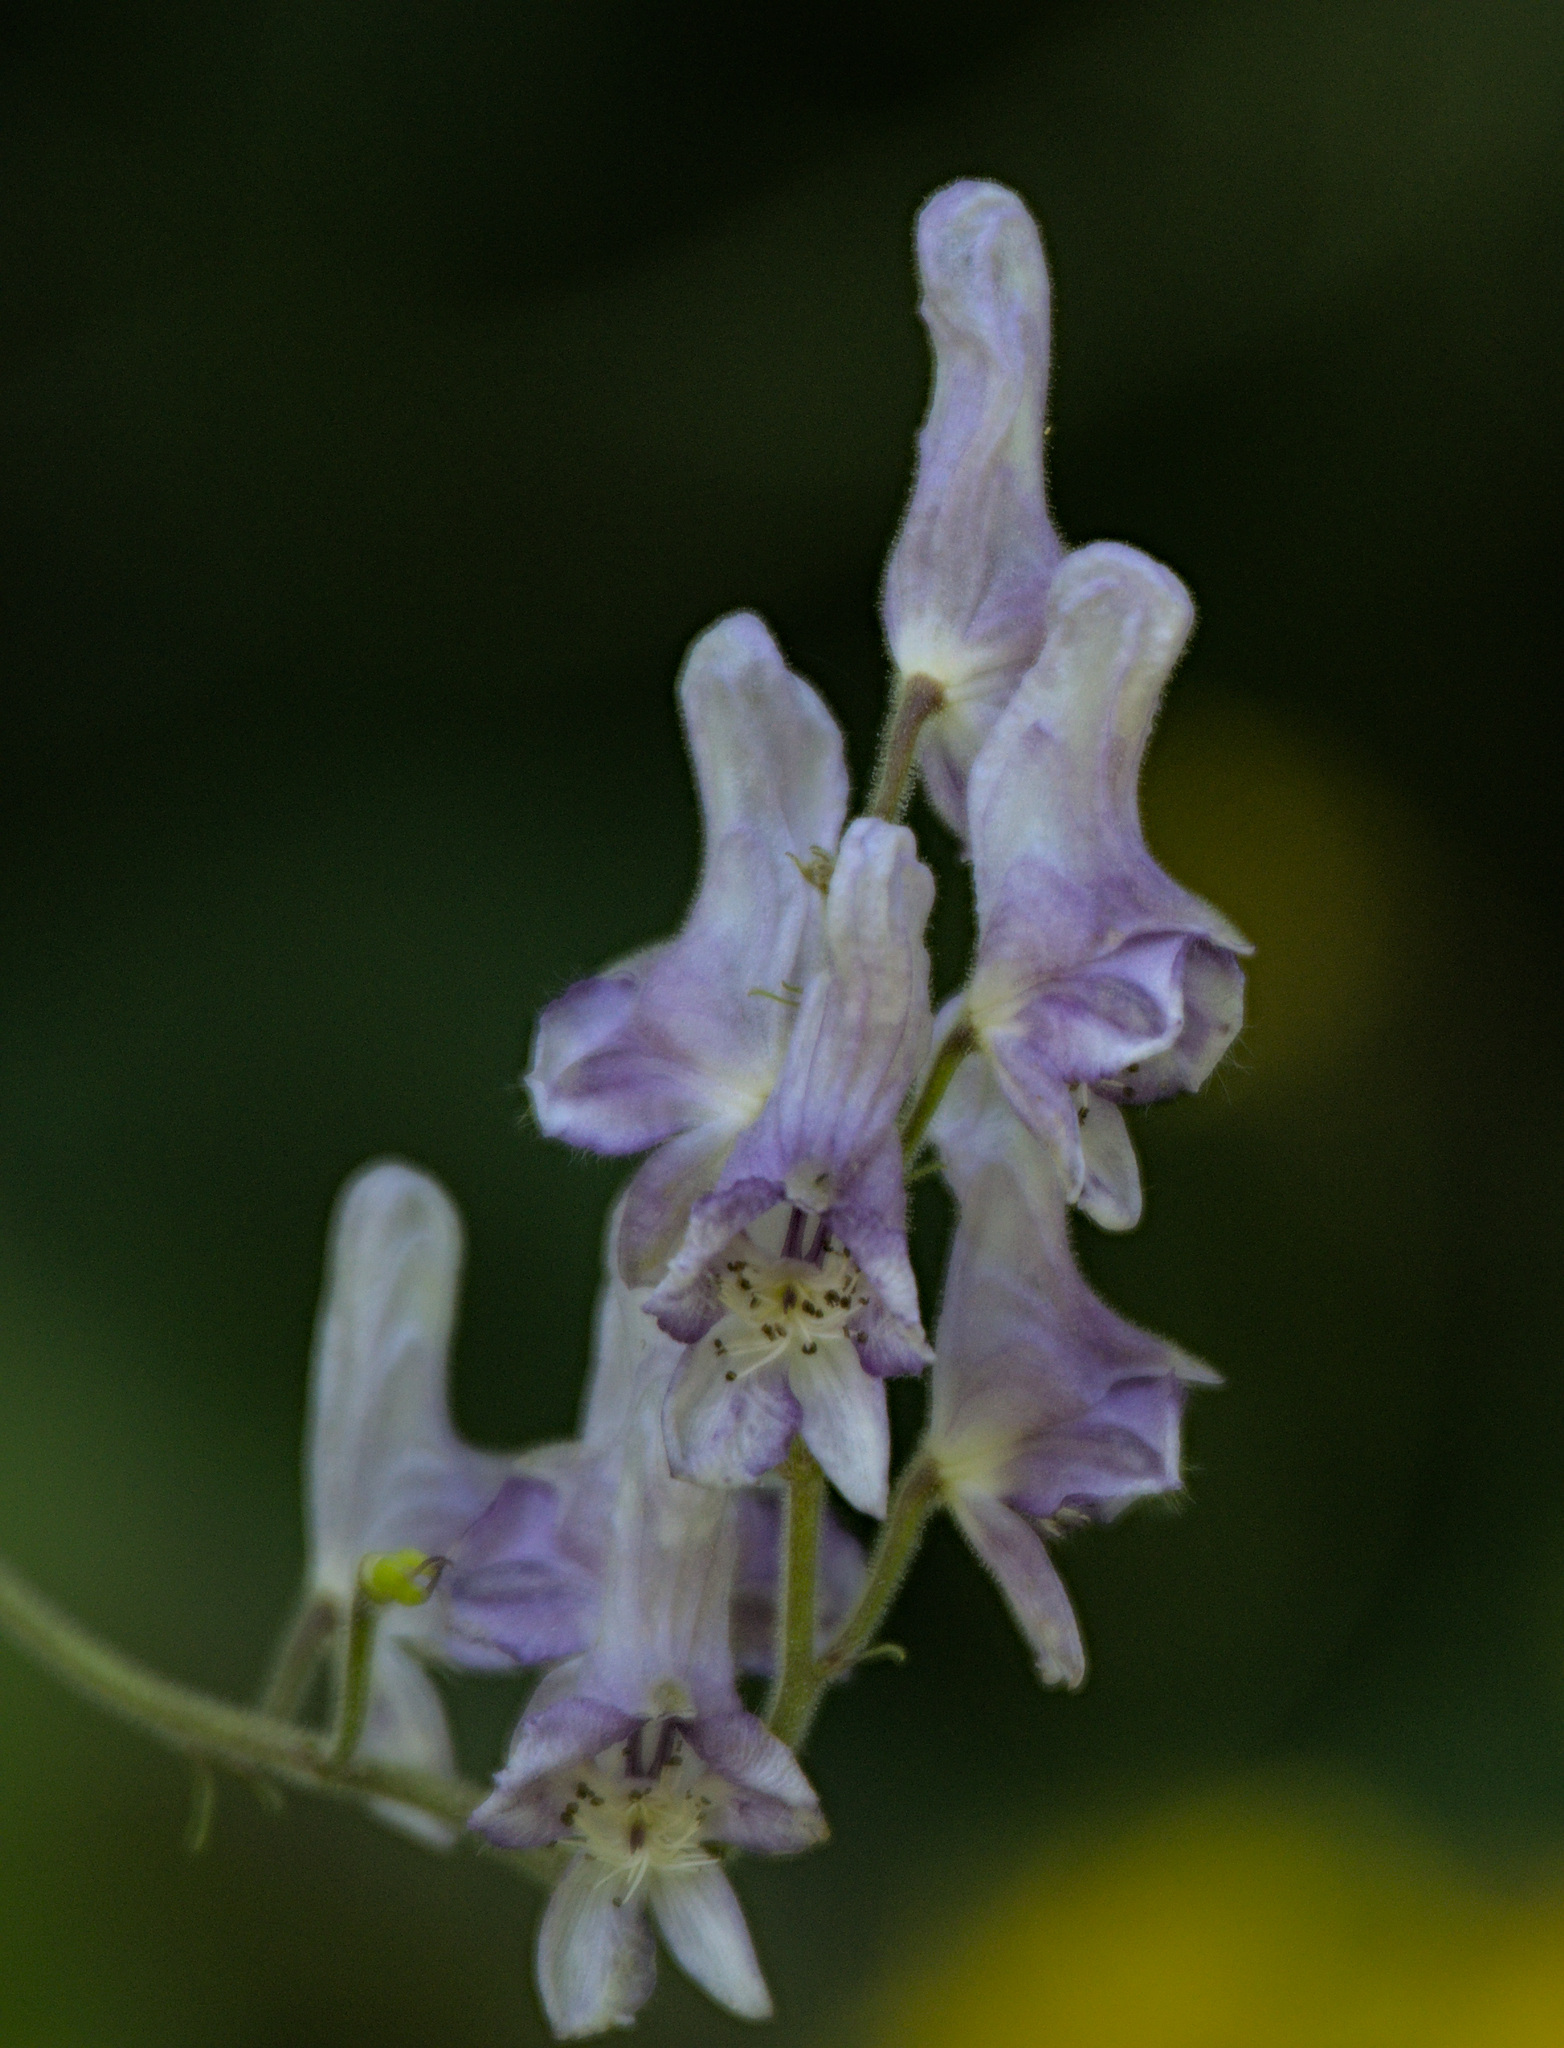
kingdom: Plantae
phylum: Tracheophyta
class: Magnoliopsida
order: Ranunculales
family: Ranunculaceae
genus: Aconitum
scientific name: Aconitum septentrionale
